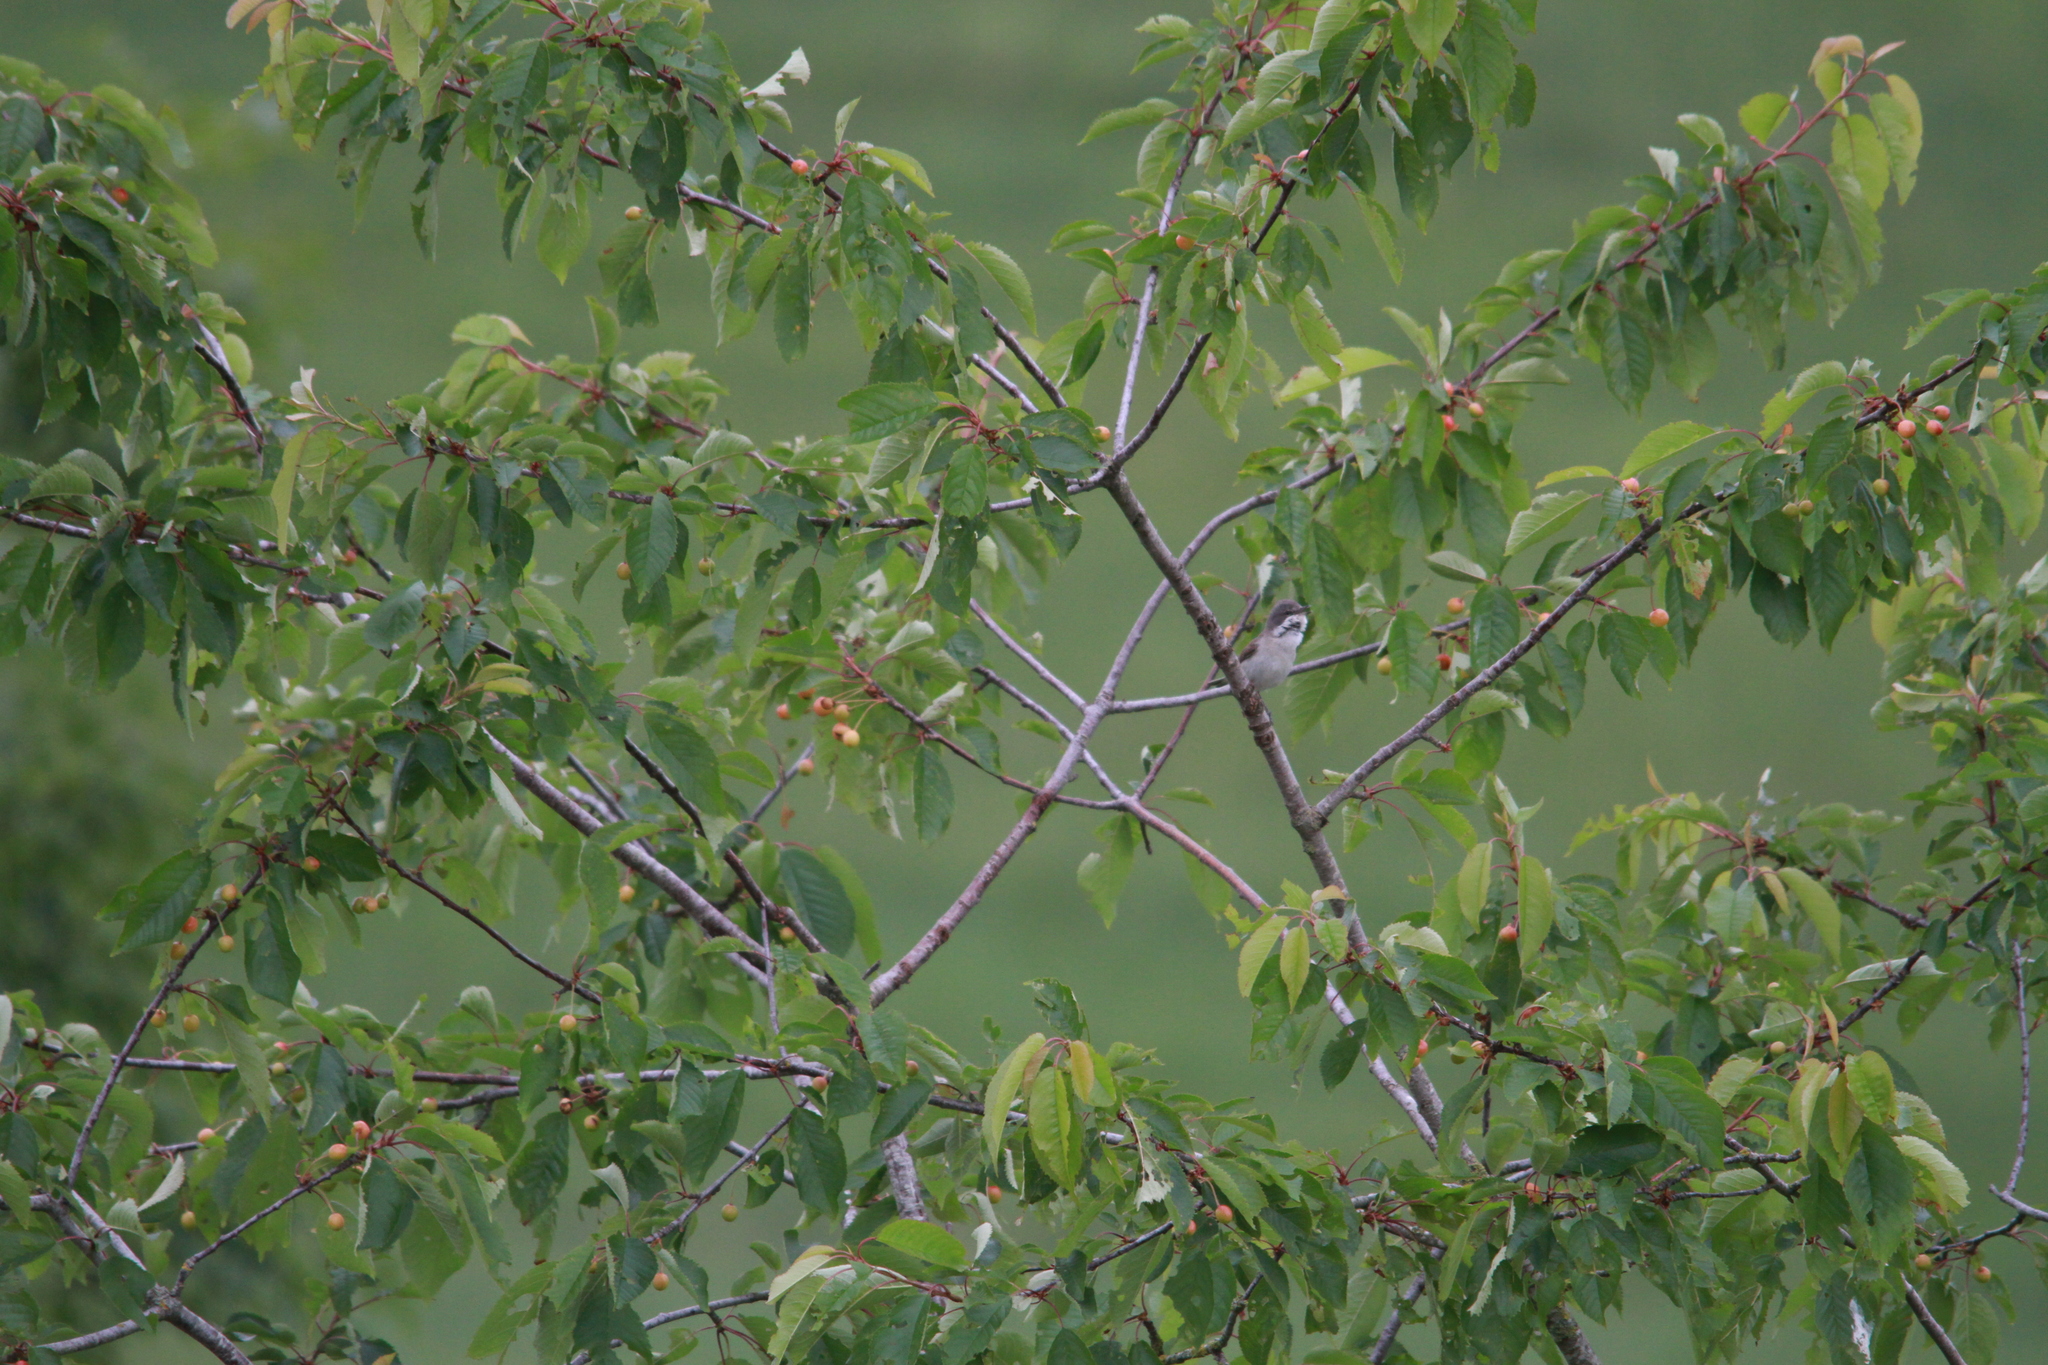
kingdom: Animalia
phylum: Chordata
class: Aves
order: Passeriformes
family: Sylviidae
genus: Sylvia
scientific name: Sylvia curruca
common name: Lesser whitethroat
